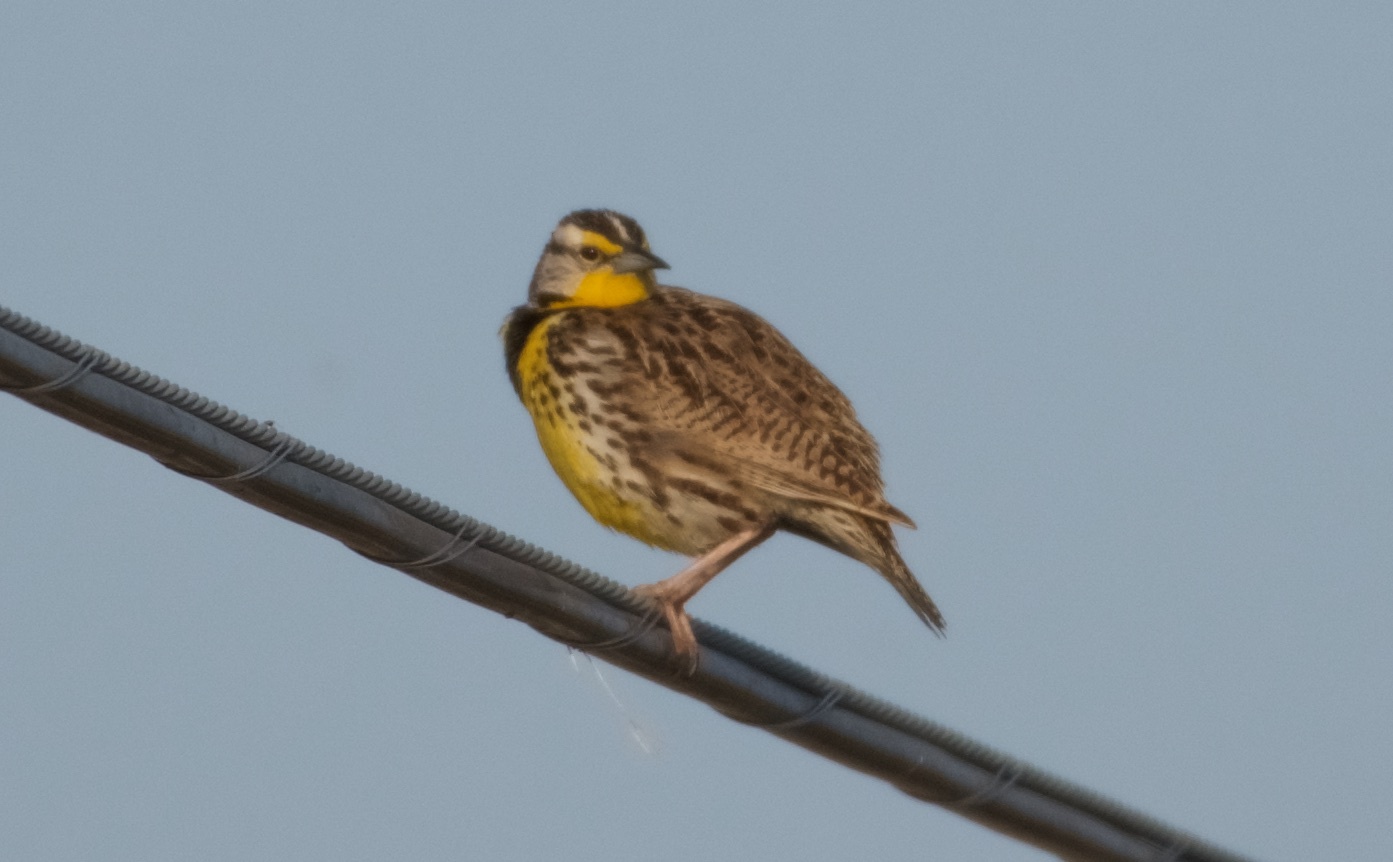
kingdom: Animalia
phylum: Chordata
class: Aves
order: Passeriformes
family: Icteridae
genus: Sturnella
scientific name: Sturnella neglecta
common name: Western meadowlark
